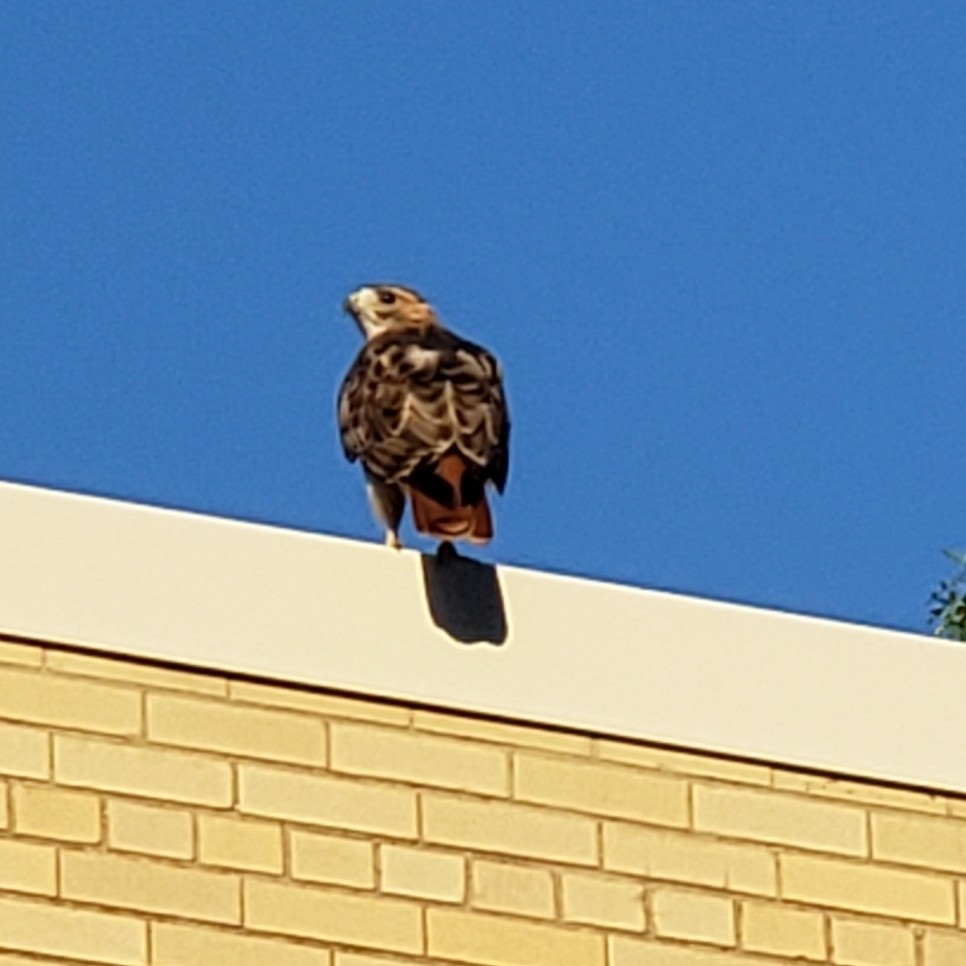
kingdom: Animalia
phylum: Chordata
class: Aves
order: Accipitriformes
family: Accipitridae
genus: Buteo
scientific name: Buteo jamaicensis
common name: Red-tailed hawk
